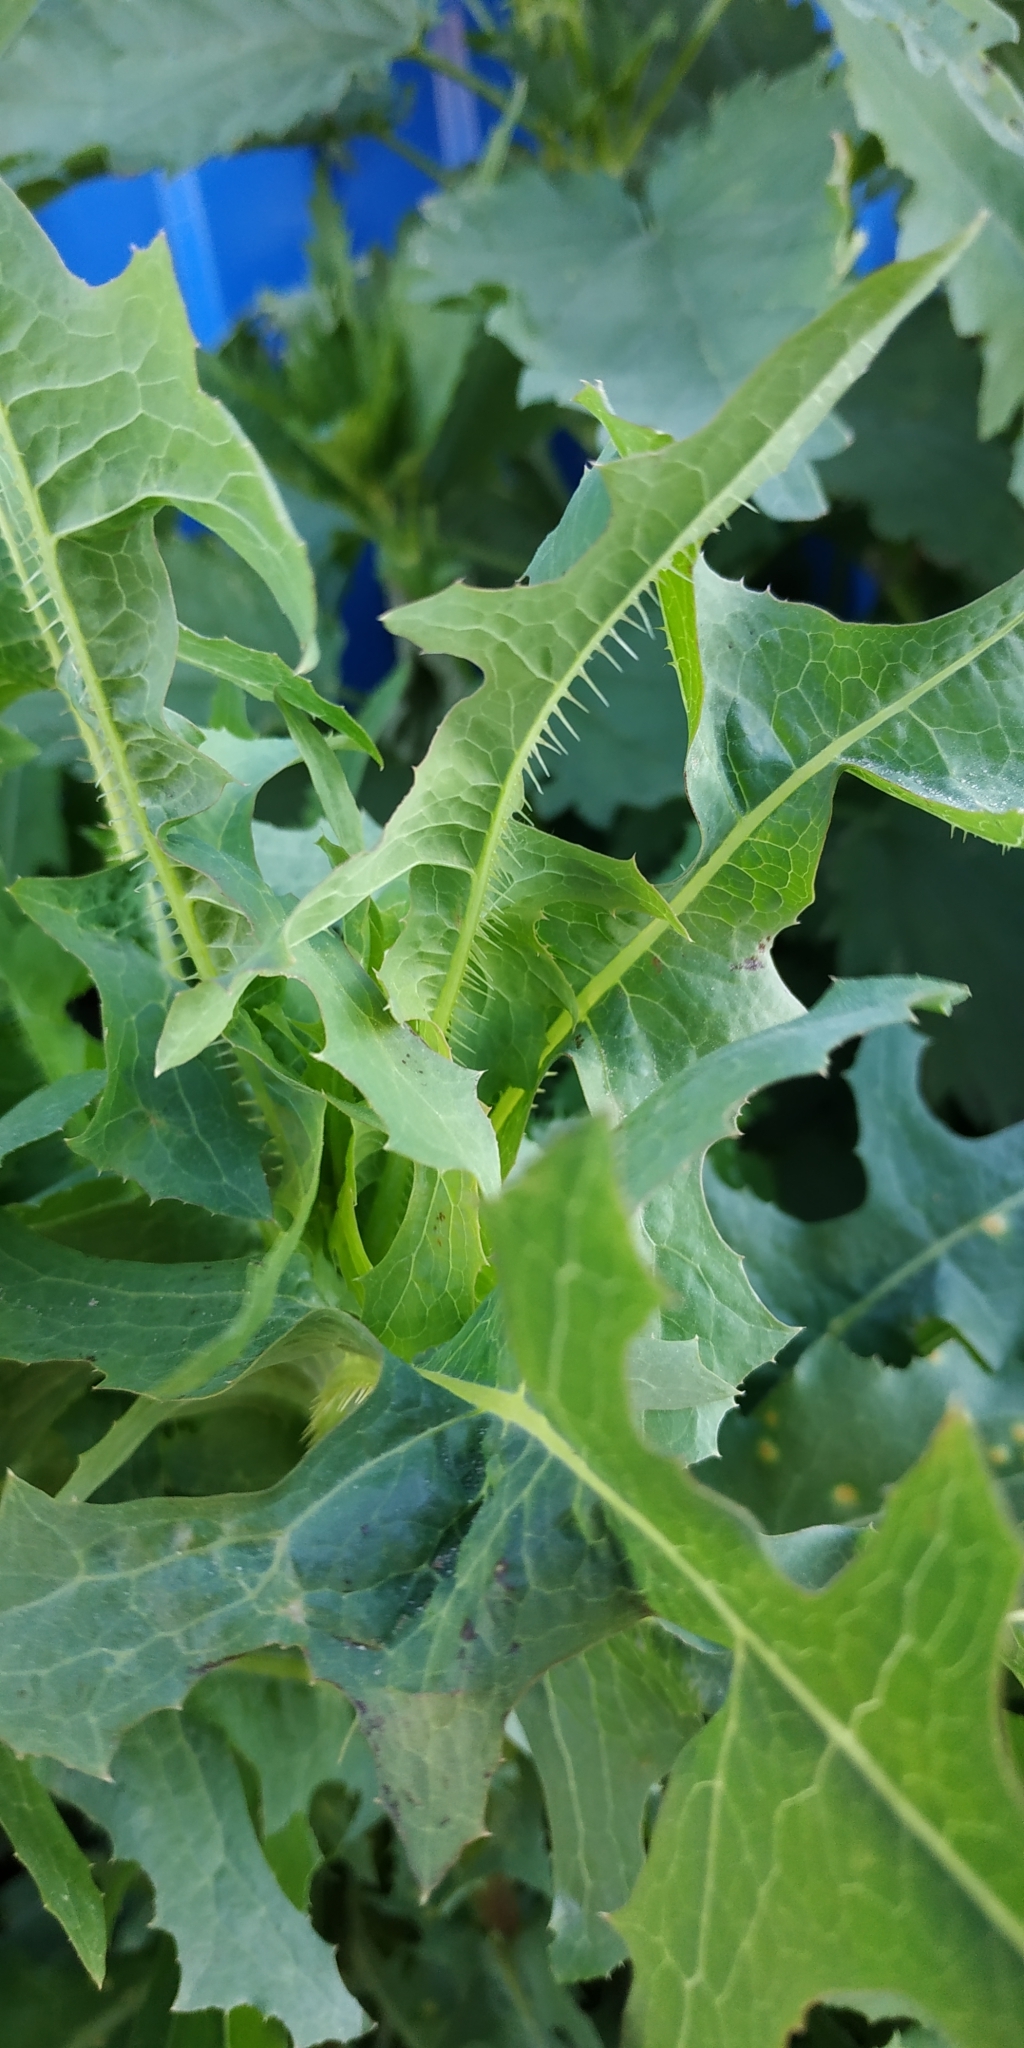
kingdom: Plantae
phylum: Tracheophyta
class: Magnoliopsida
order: Asterales
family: Asteraceae
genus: Lactuca
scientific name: Lactuca serriola
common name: Prickly lettuce
